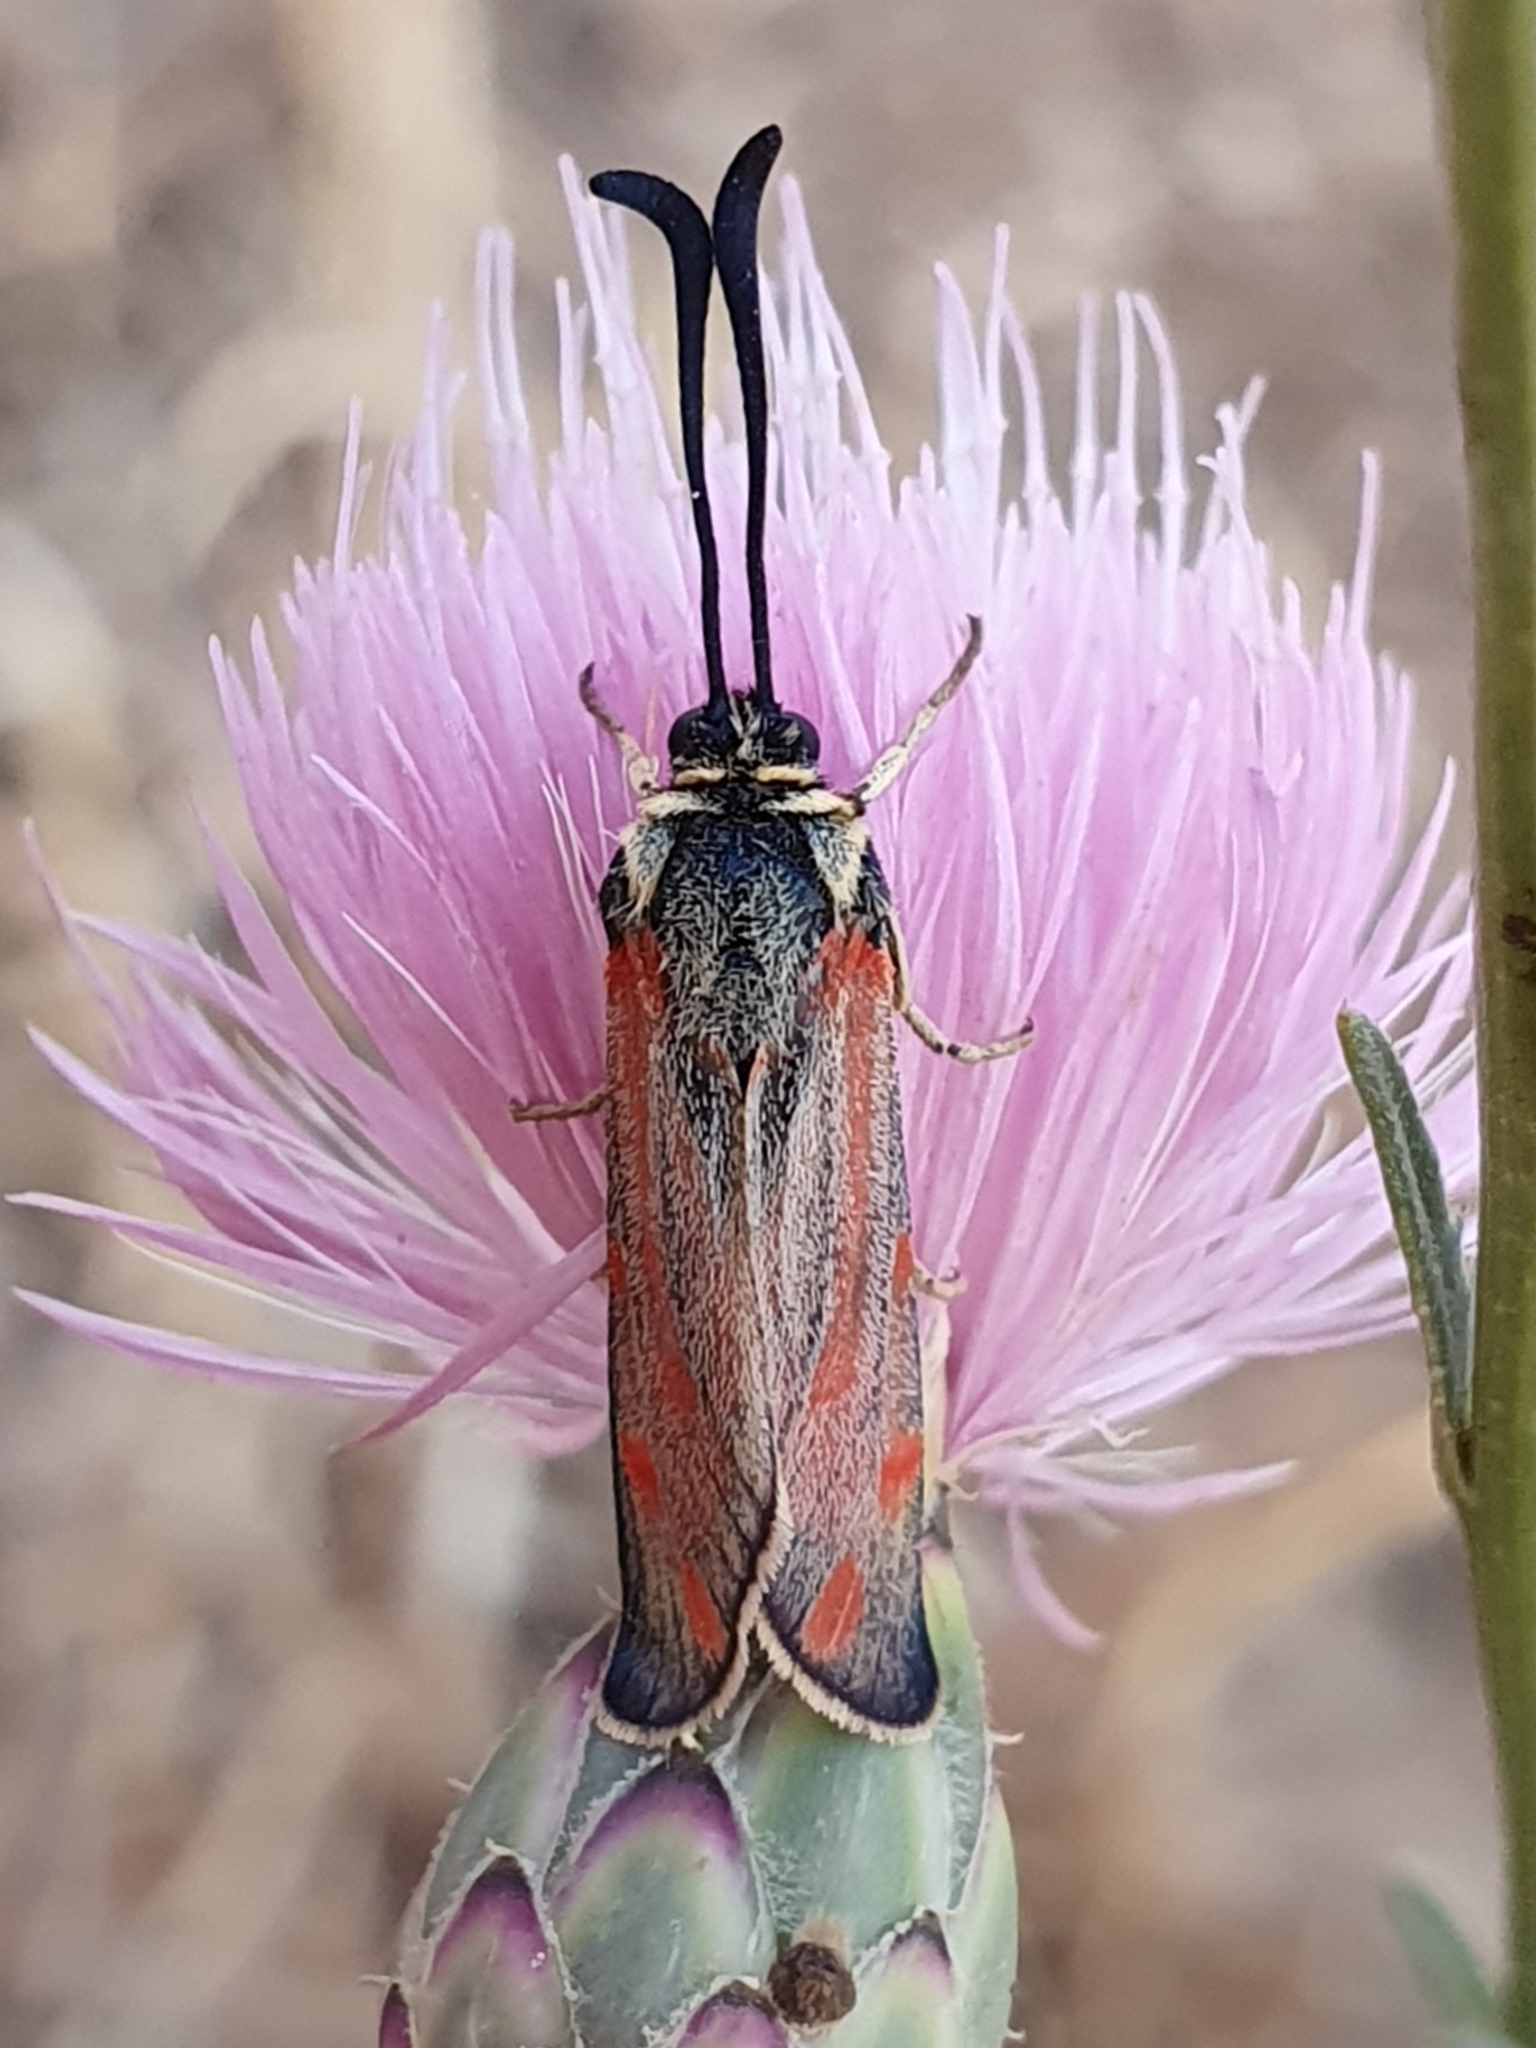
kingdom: Animalia
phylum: Arthropoda
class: Insecta
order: Lepidoptera
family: Zygaenidae
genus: Zygaena
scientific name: Zygaena favonia
